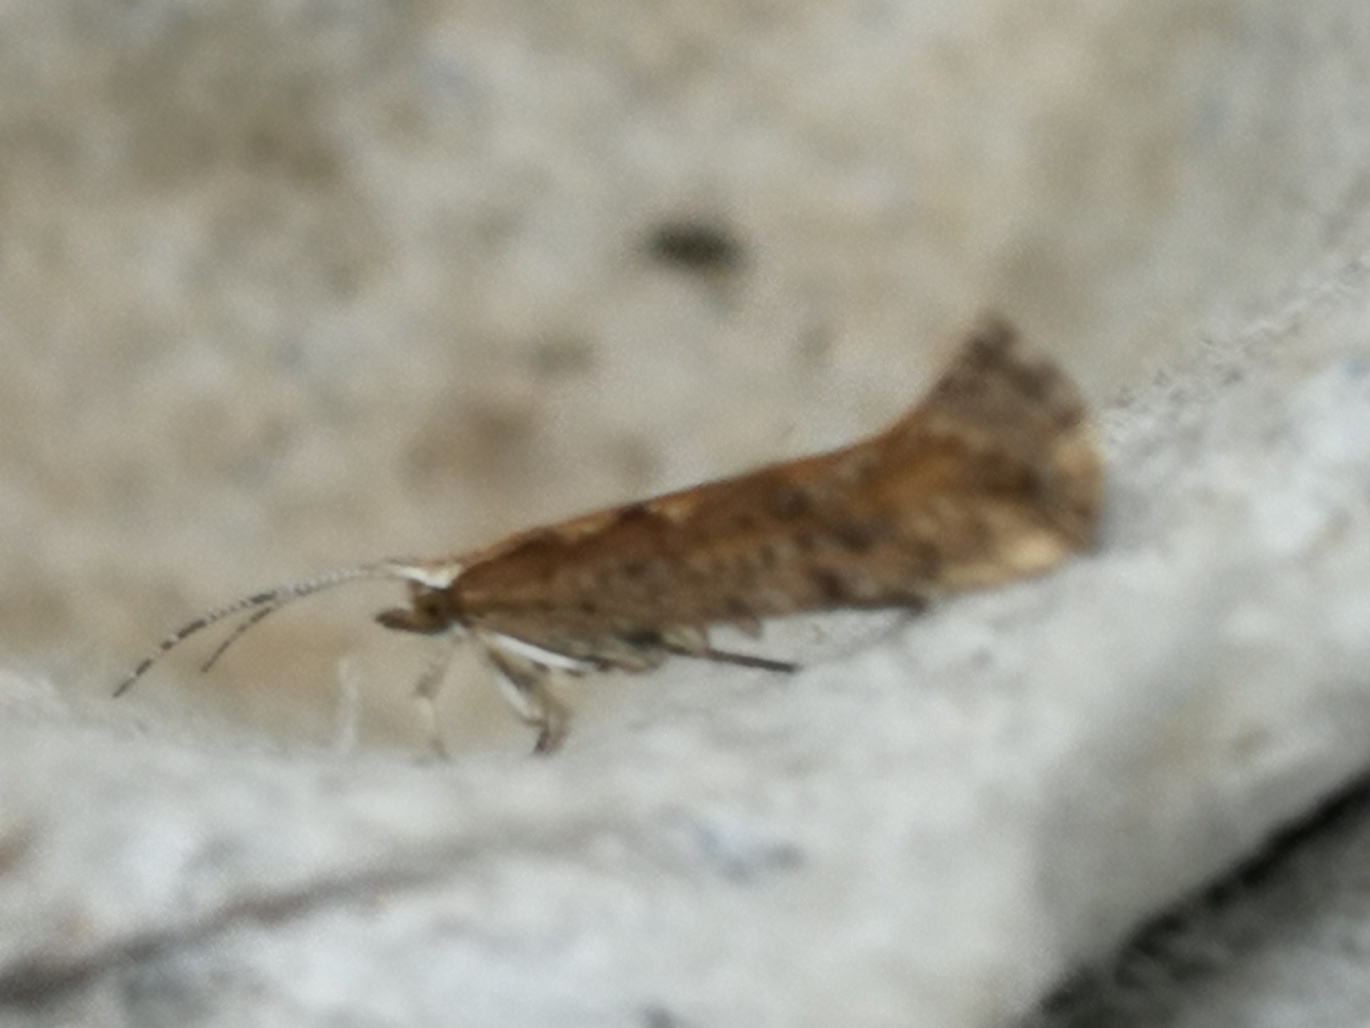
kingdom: Animalia
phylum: Arthropoda
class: Insecta
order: Lepidoptera
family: Plutellidae
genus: Plutella
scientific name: Plutella xylostella
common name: Diamond-back moth
